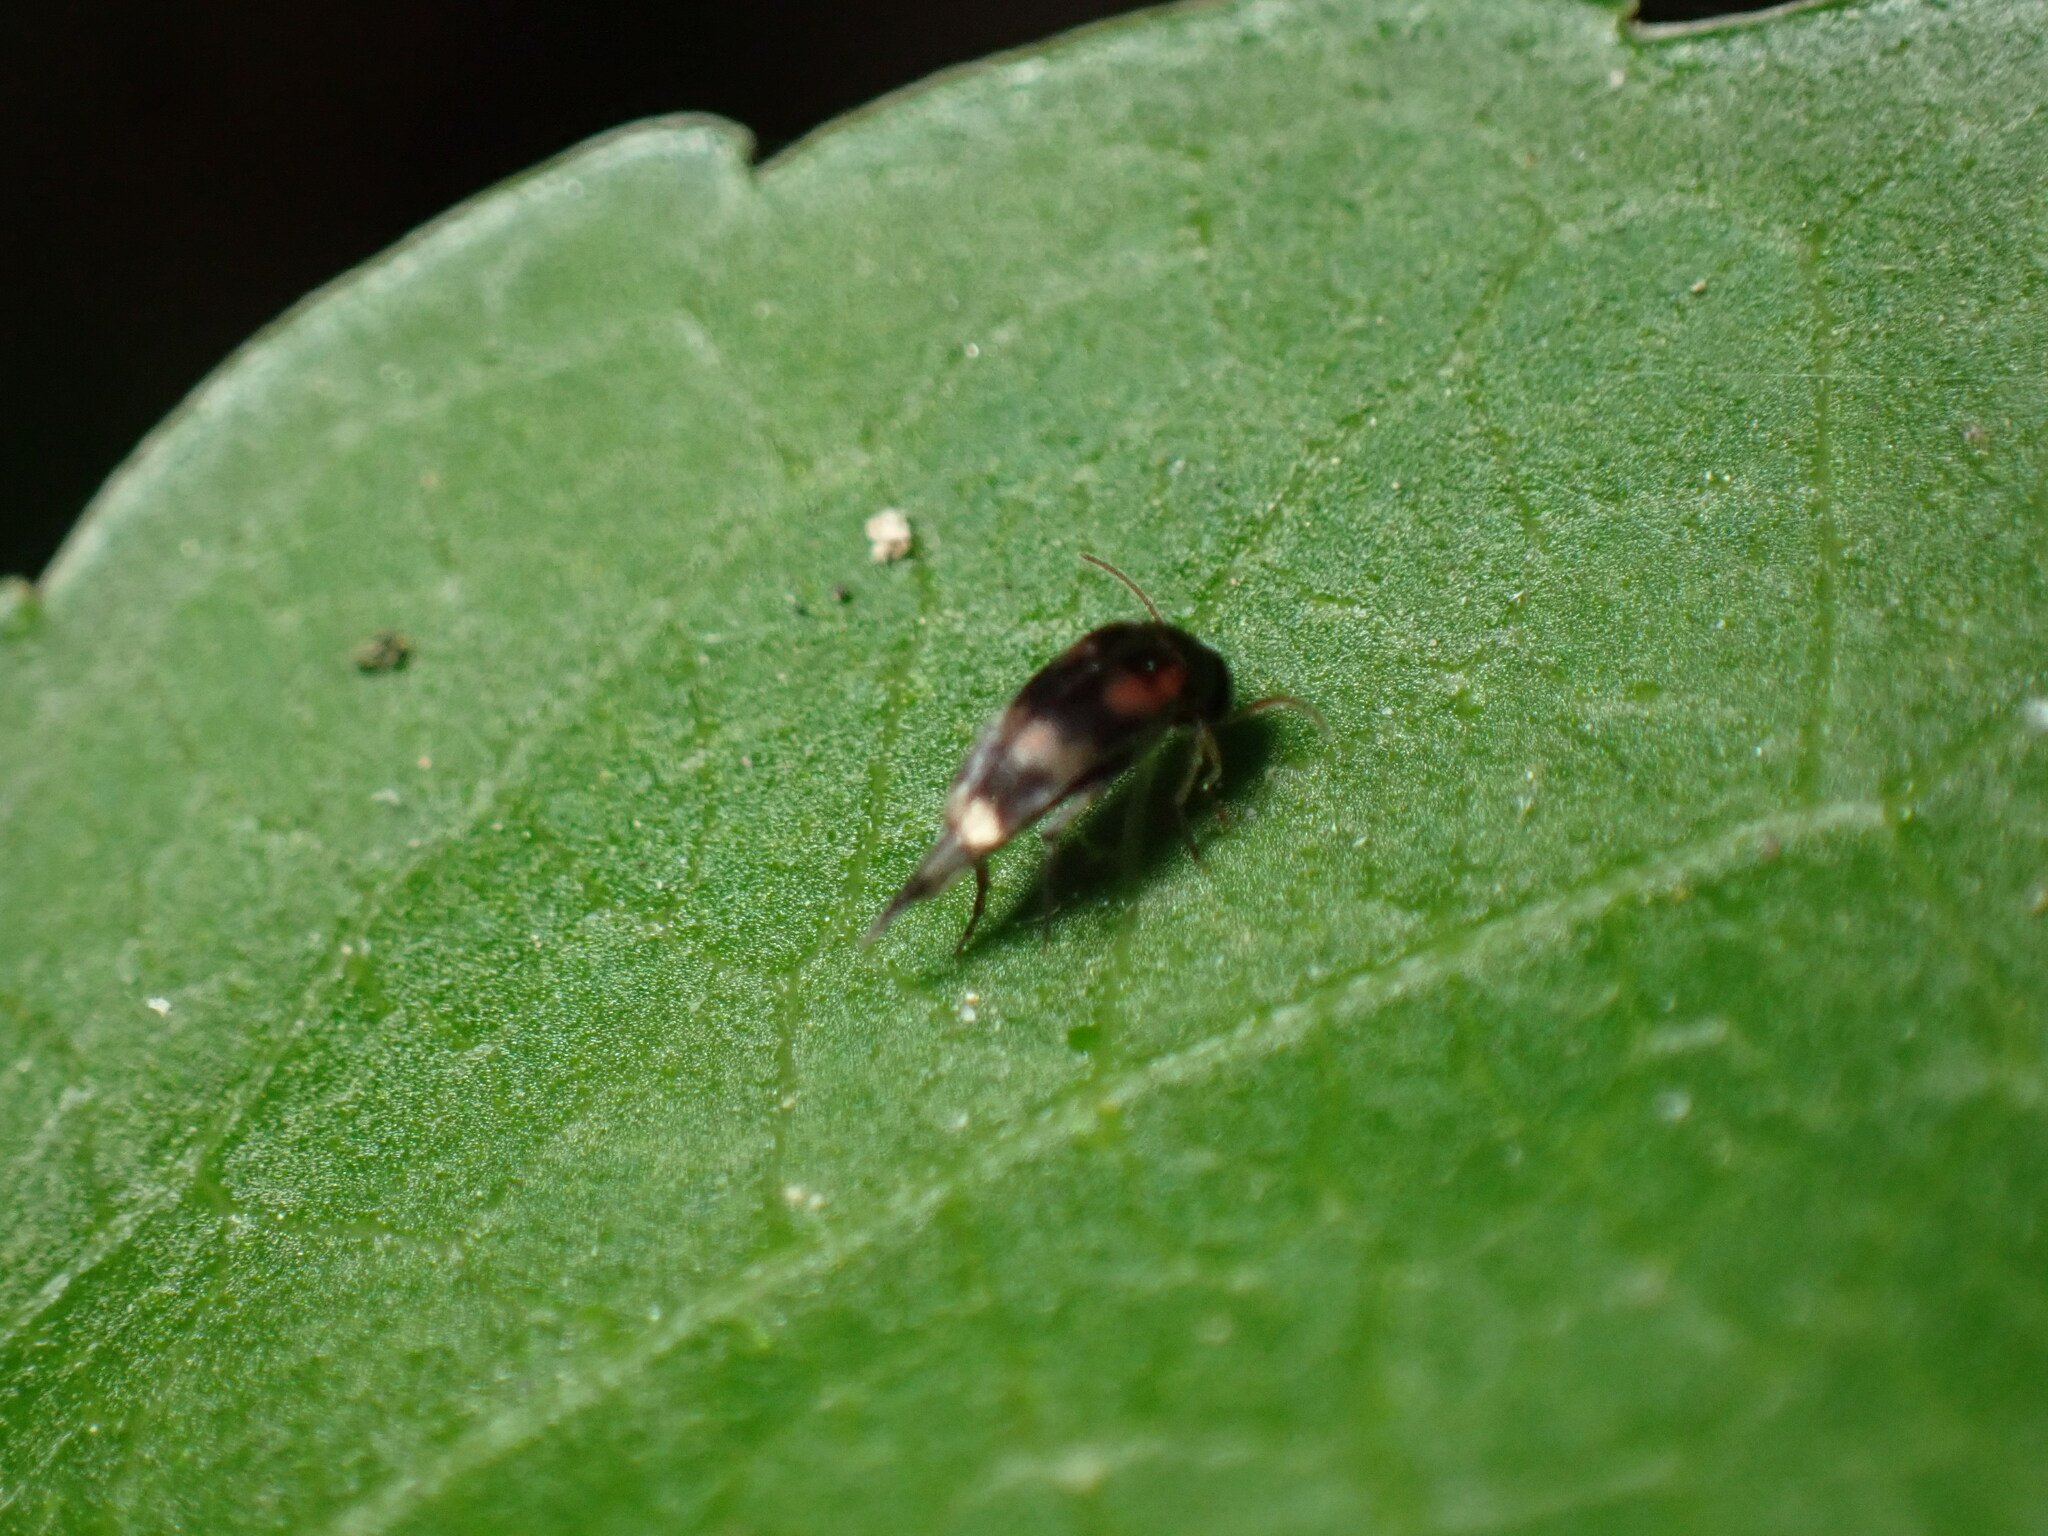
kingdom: Animalia
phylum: Arthropoda
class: Insecta
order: Coleoptera
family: Mordellidae
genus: Falsomordellistena
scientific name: Falsomordellistena pubescens
